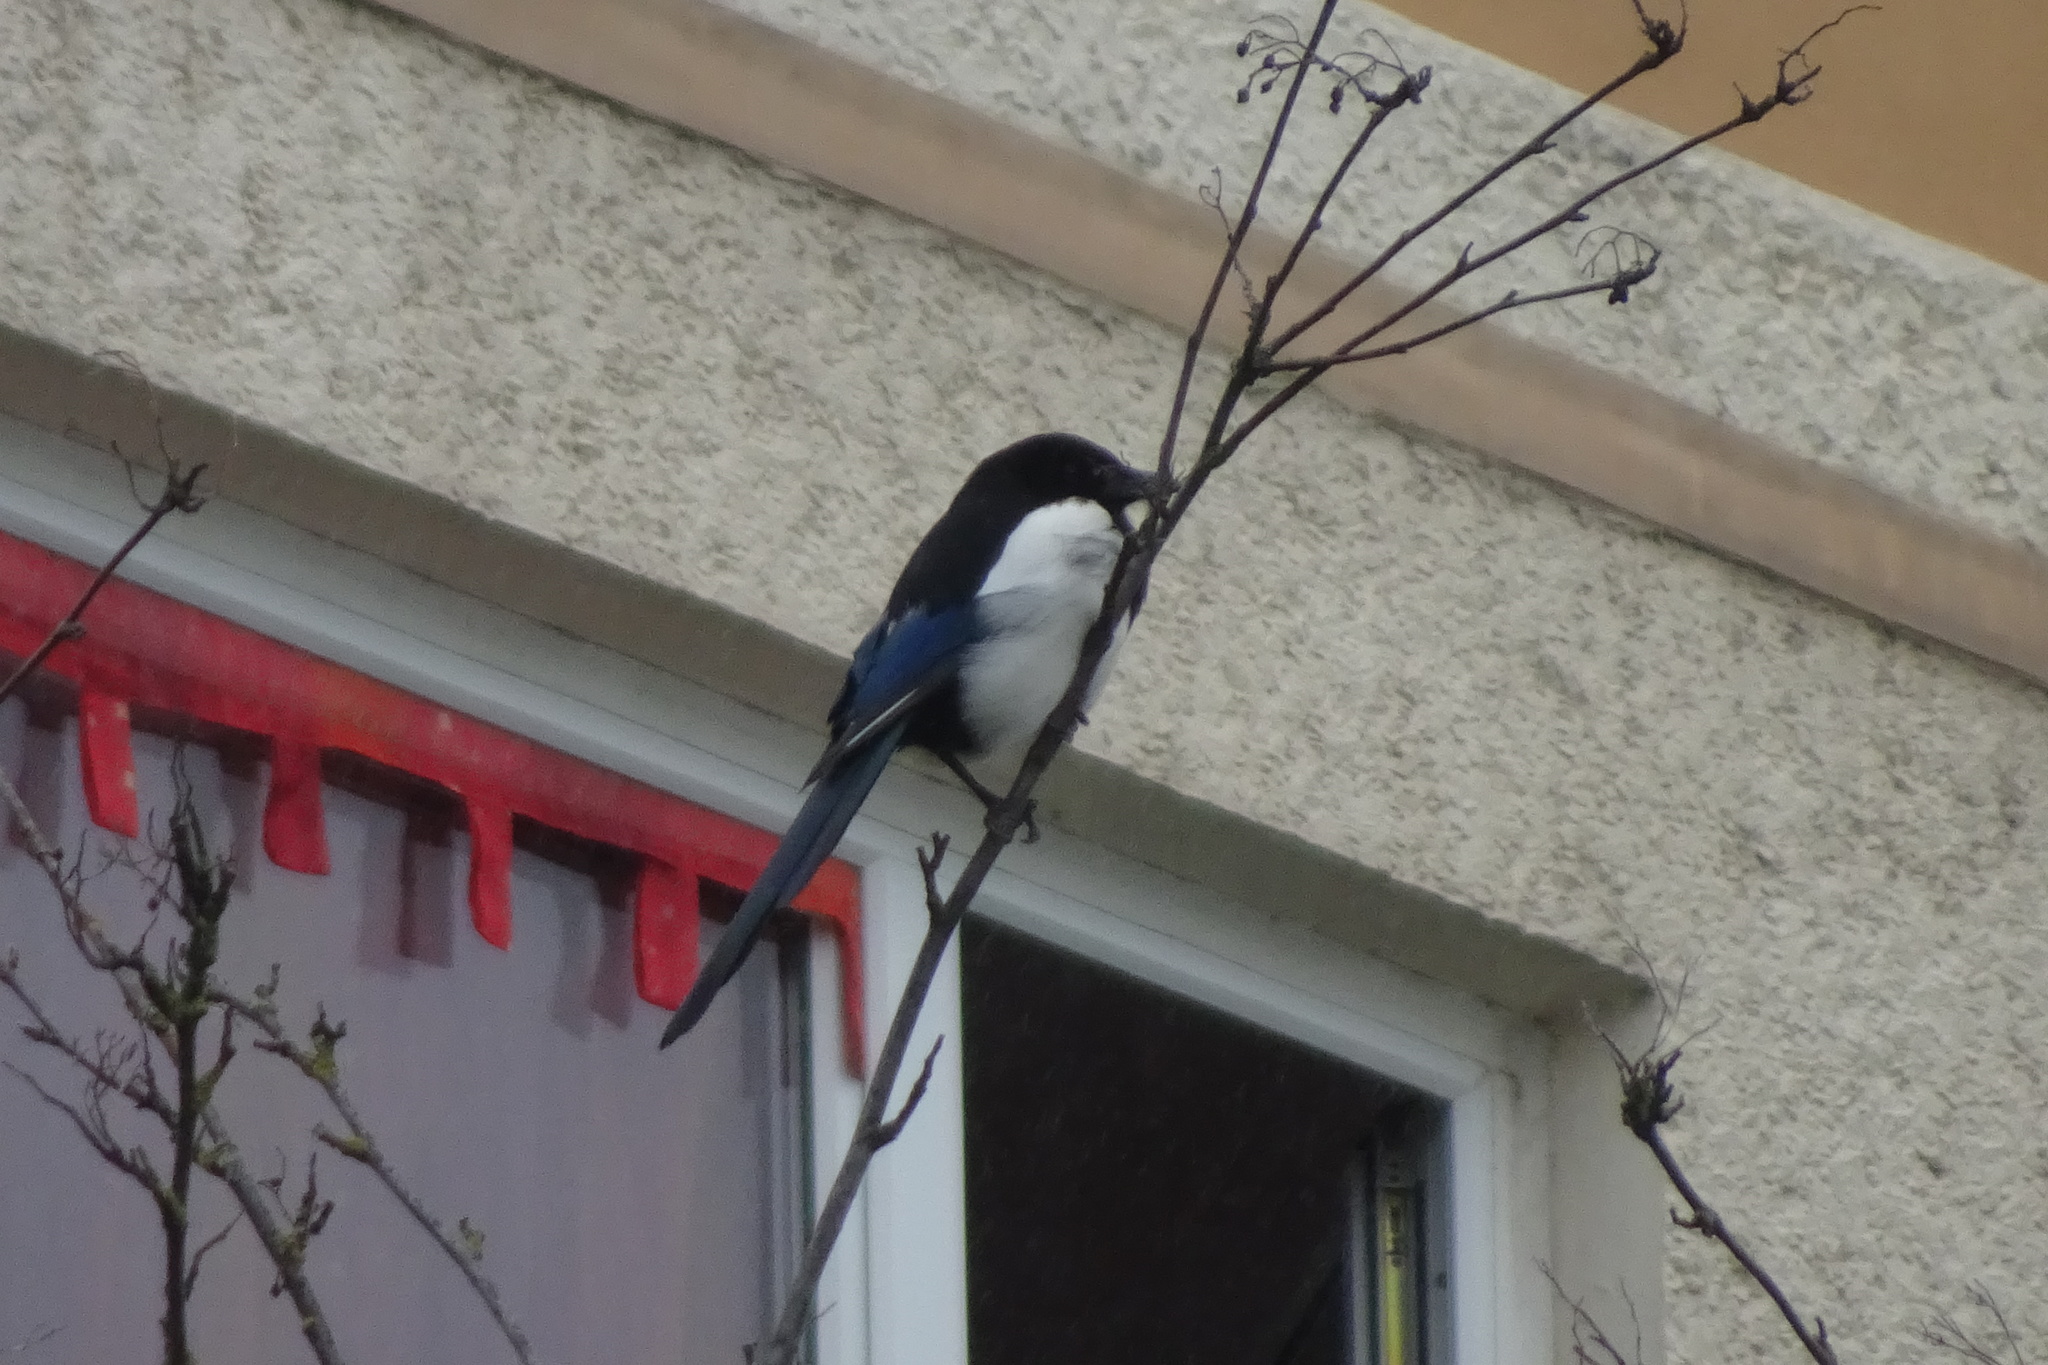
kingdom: Animalia
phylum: Chordata
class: Aves
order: Passeriformes
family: Corvidae
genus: Pica
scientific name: Pica pica
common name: Eurasian magpie
